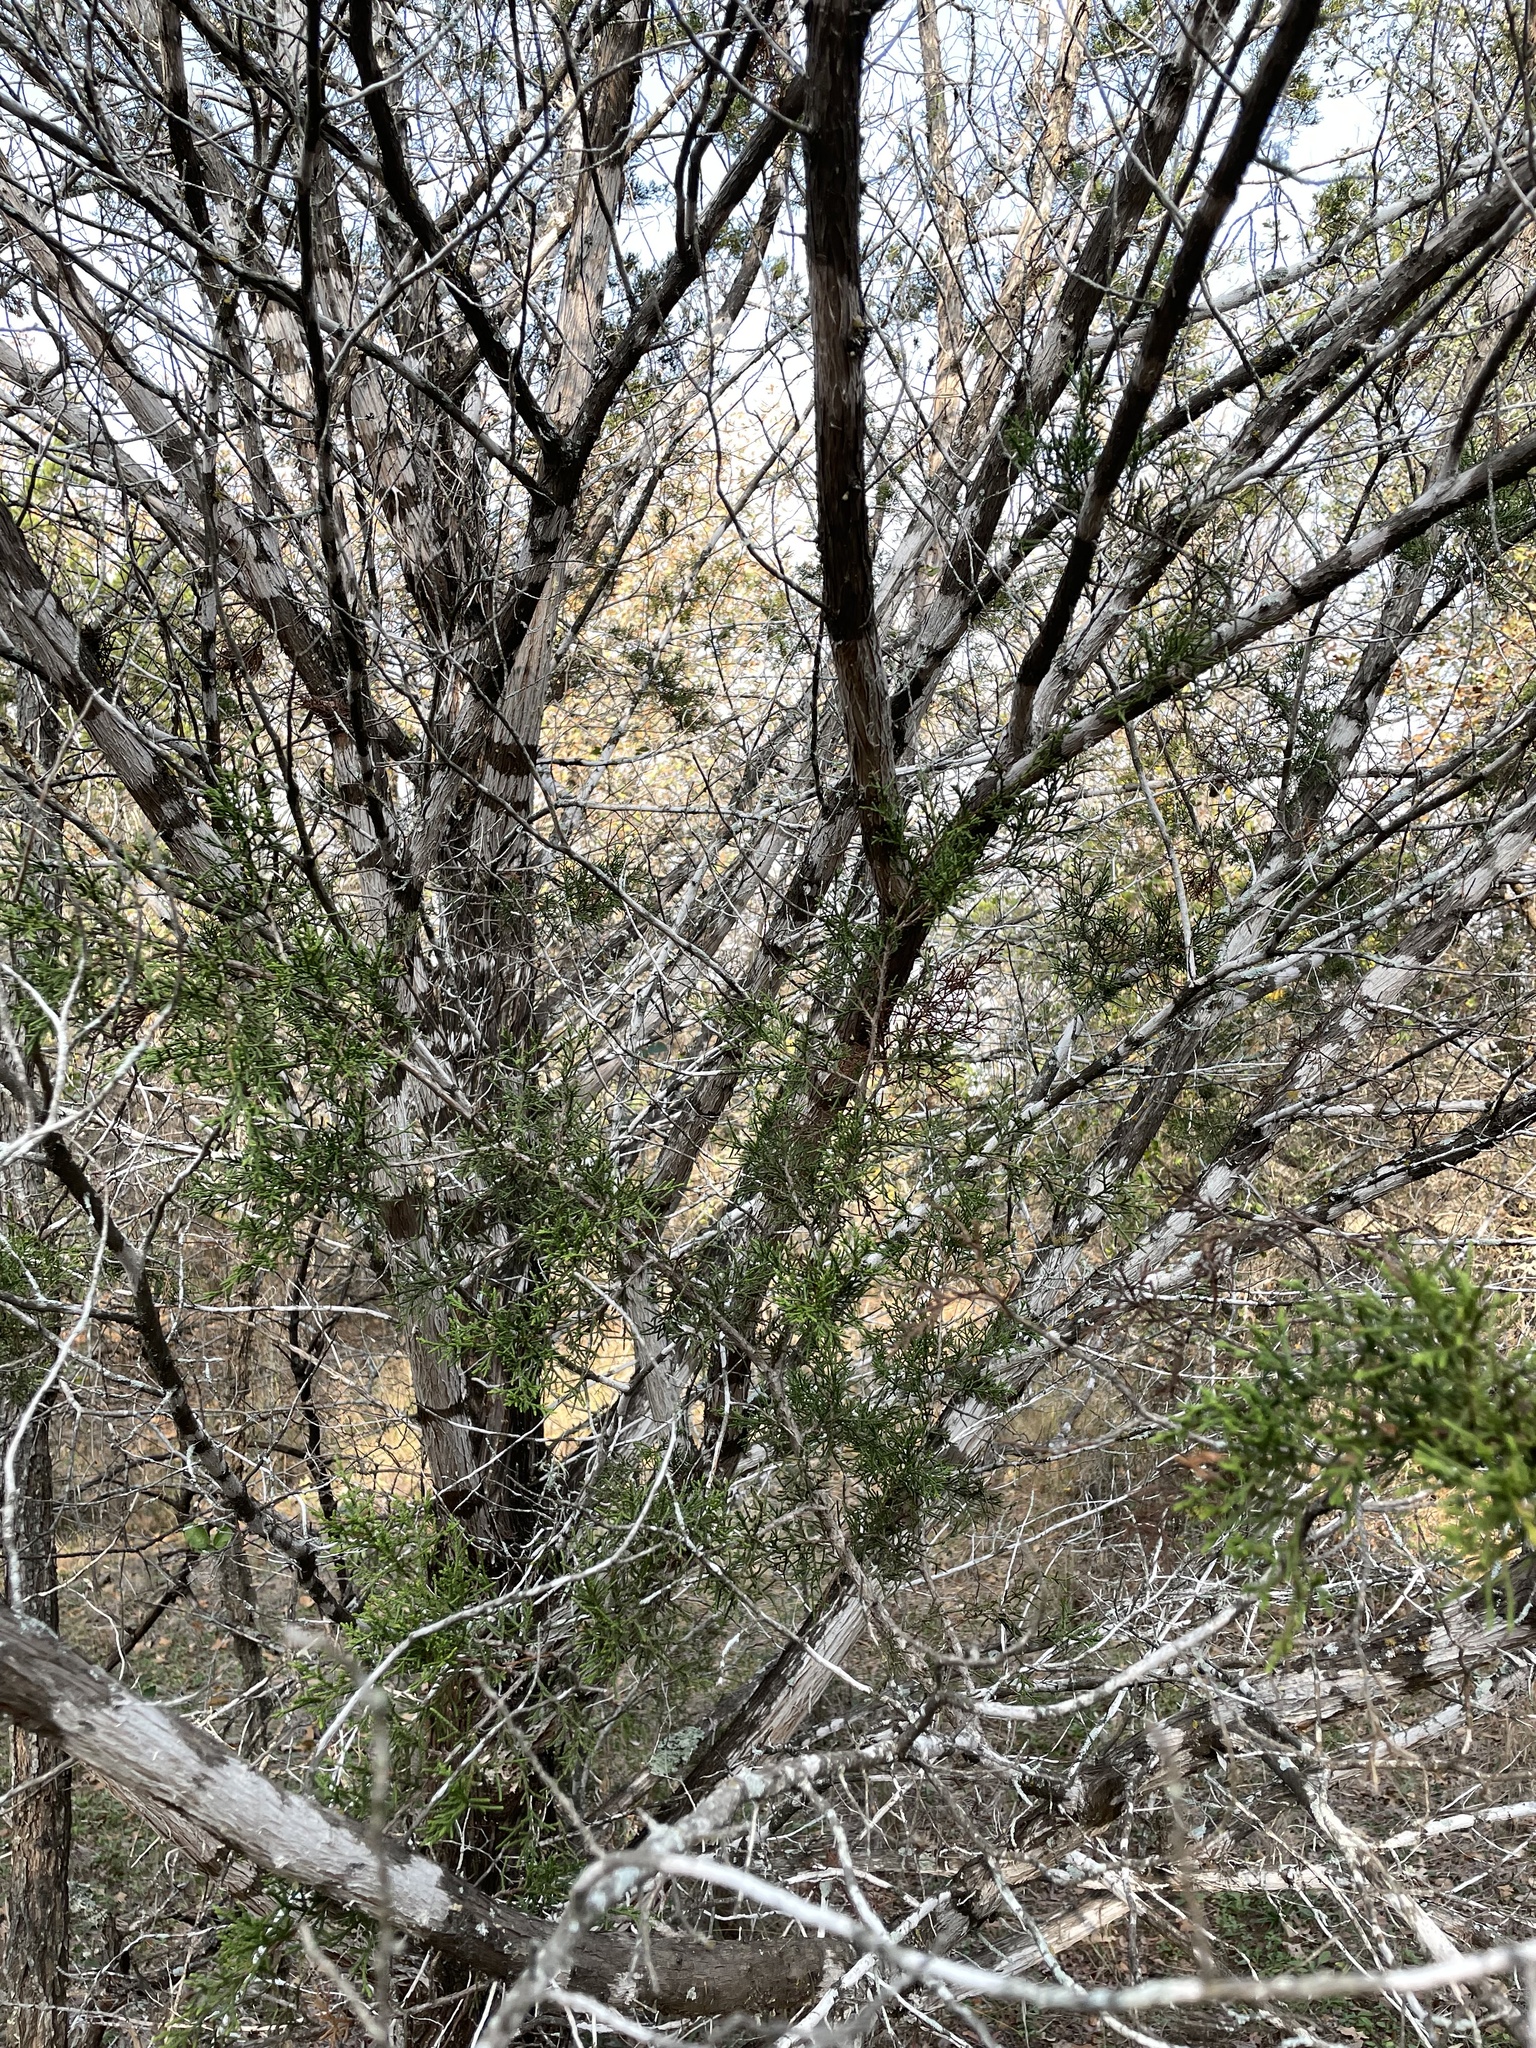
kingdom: Plantae
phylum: Tracheophyta
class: Pinopsida
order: Pinales
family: Cupressaceae
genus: Juniperus
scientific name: Juniperus ashei
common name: Mexican juniper
